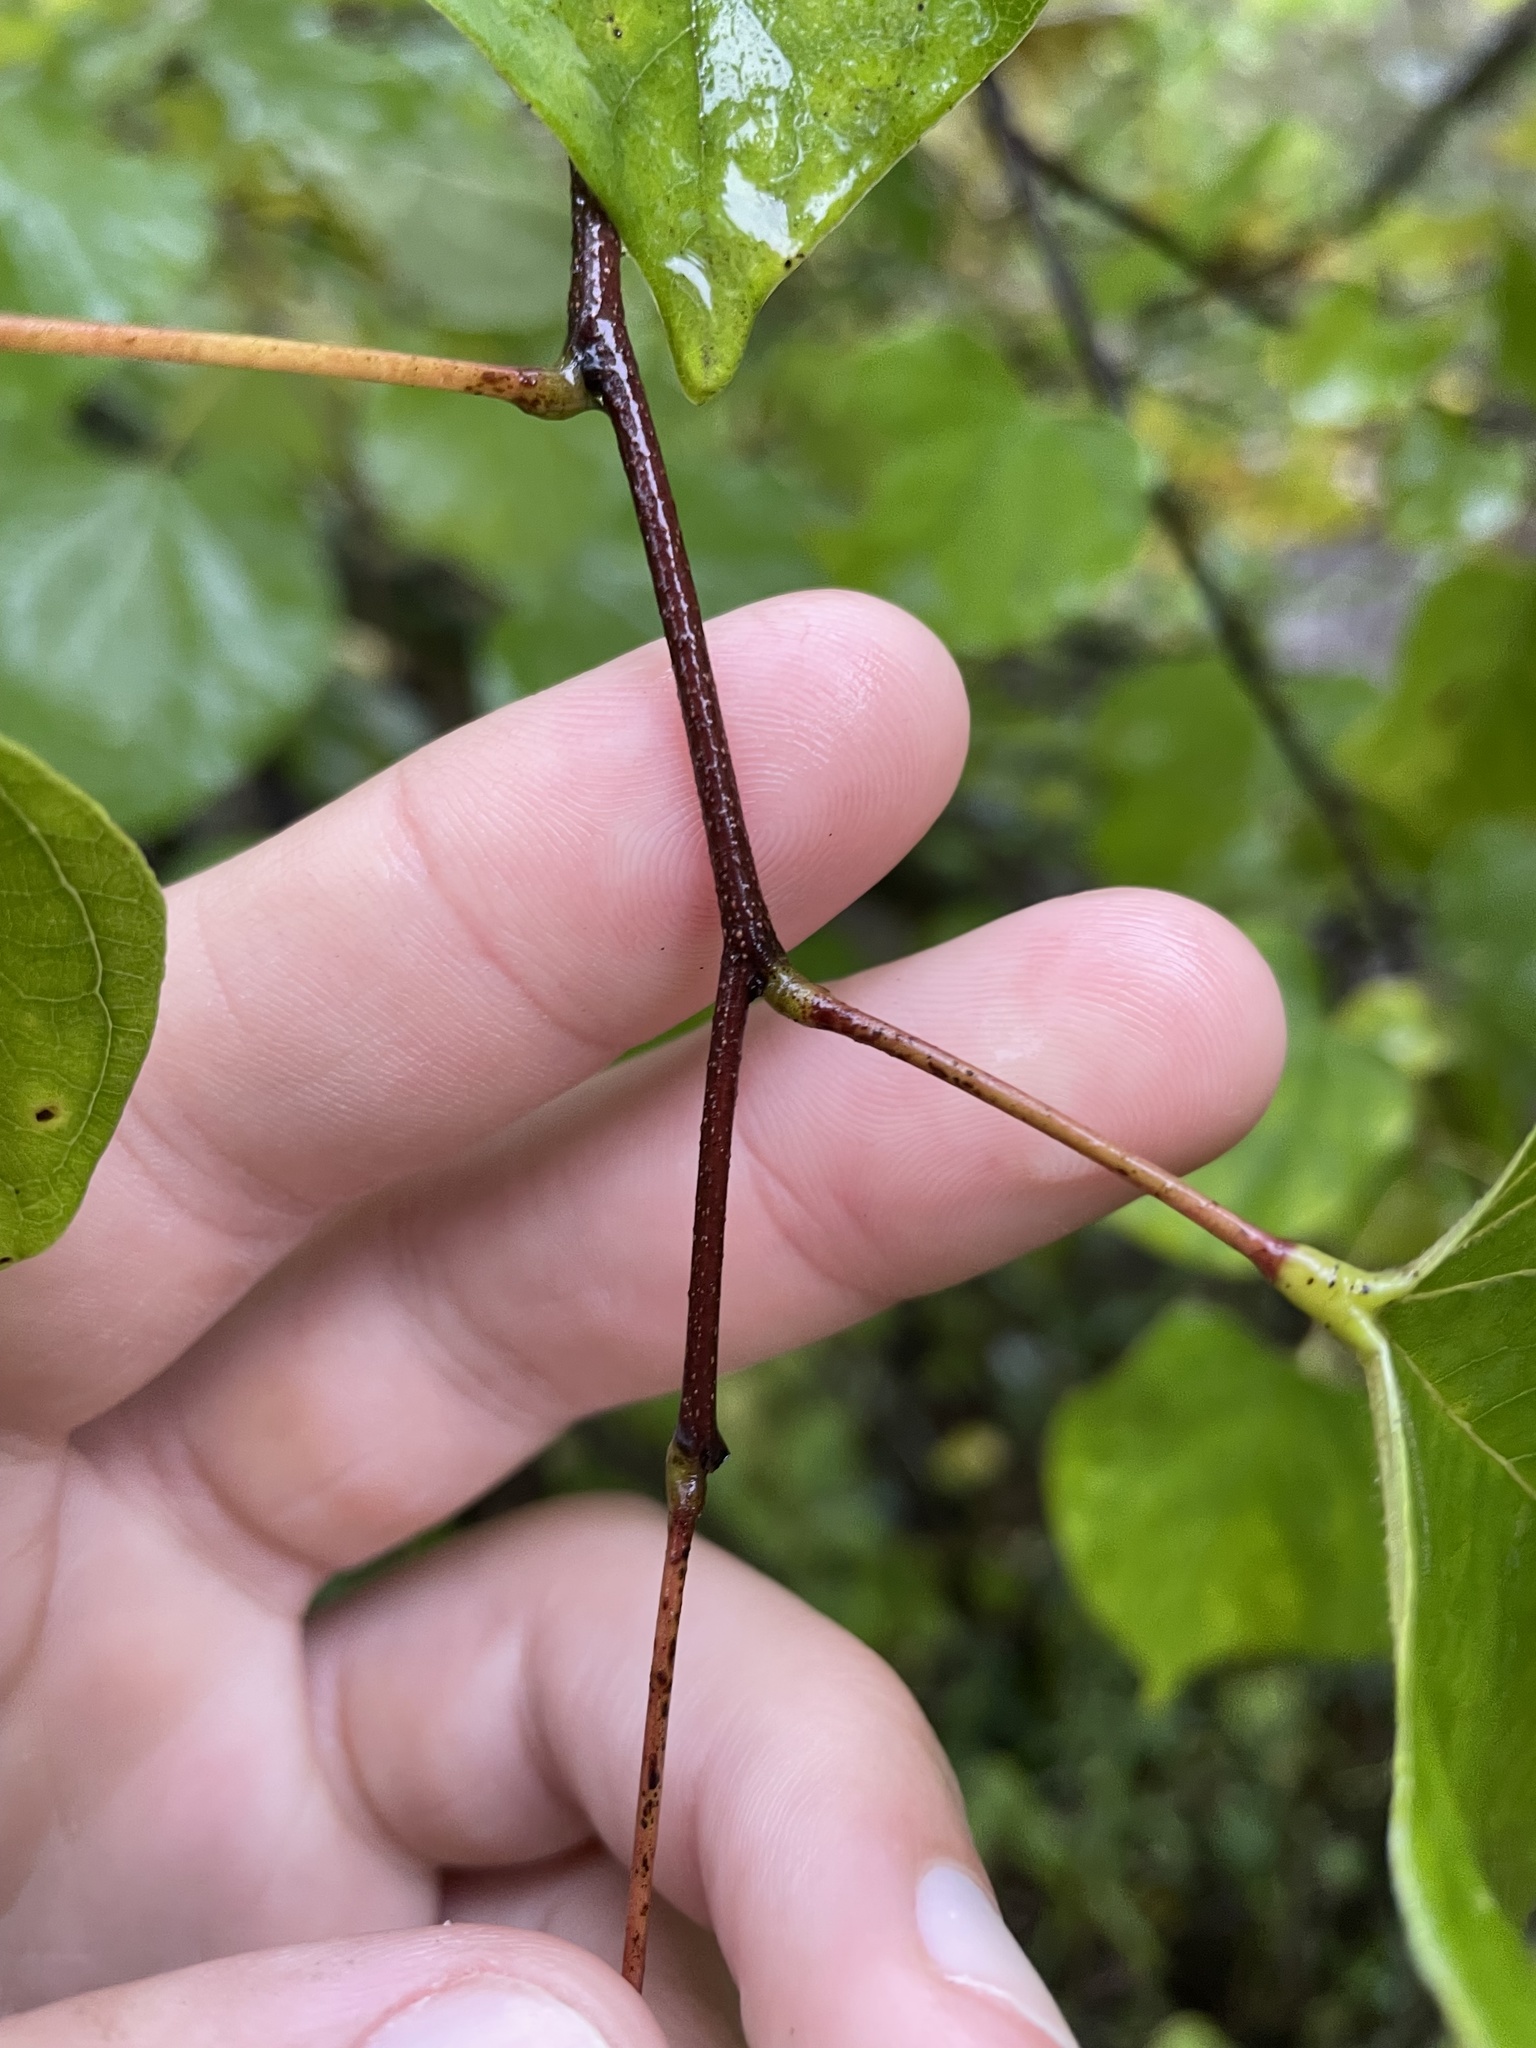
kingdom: Plantae
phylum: Tracheophyta
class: Magnoliopsida
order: Fabales
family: Fabaceae
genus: Cercis
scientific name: Cercis canadensis
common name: Eastern redbud
